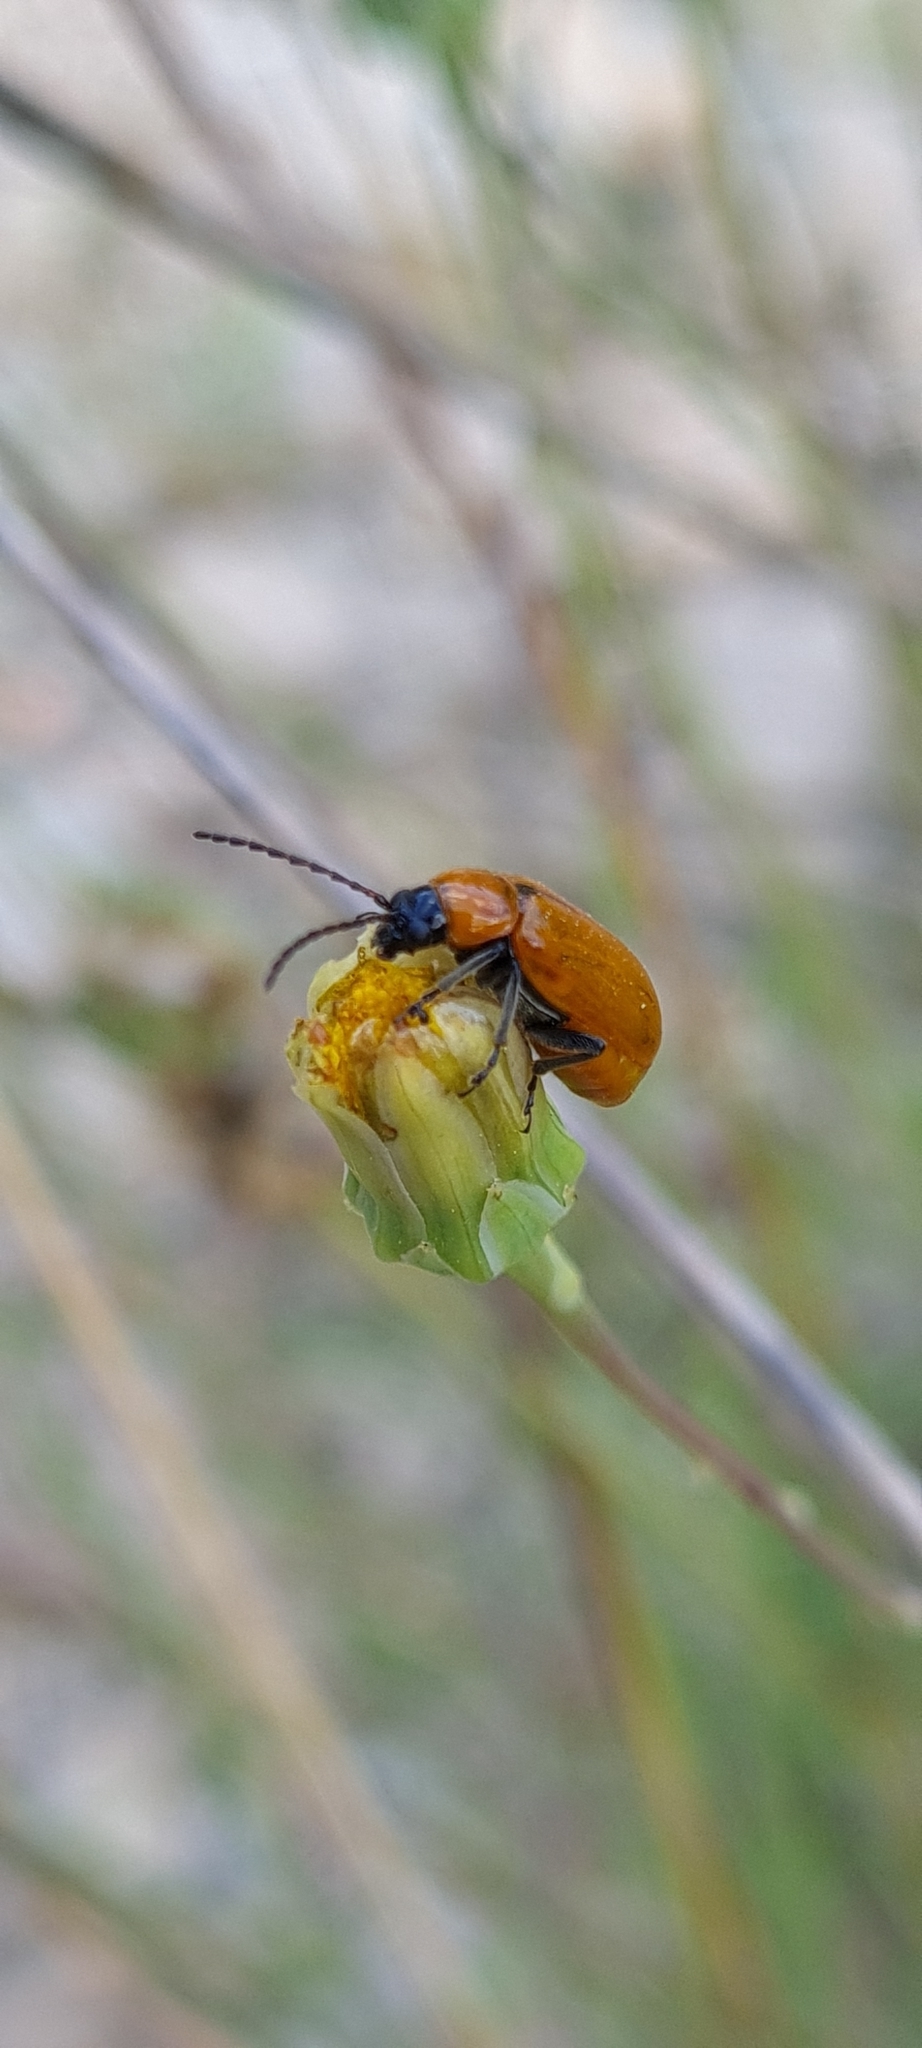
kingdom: Animalia
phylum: Arthropoda
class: Insecta
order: Coleoptera
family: Chrysomelidae
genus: Exosoma
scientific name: Exosoma lusitanicum
